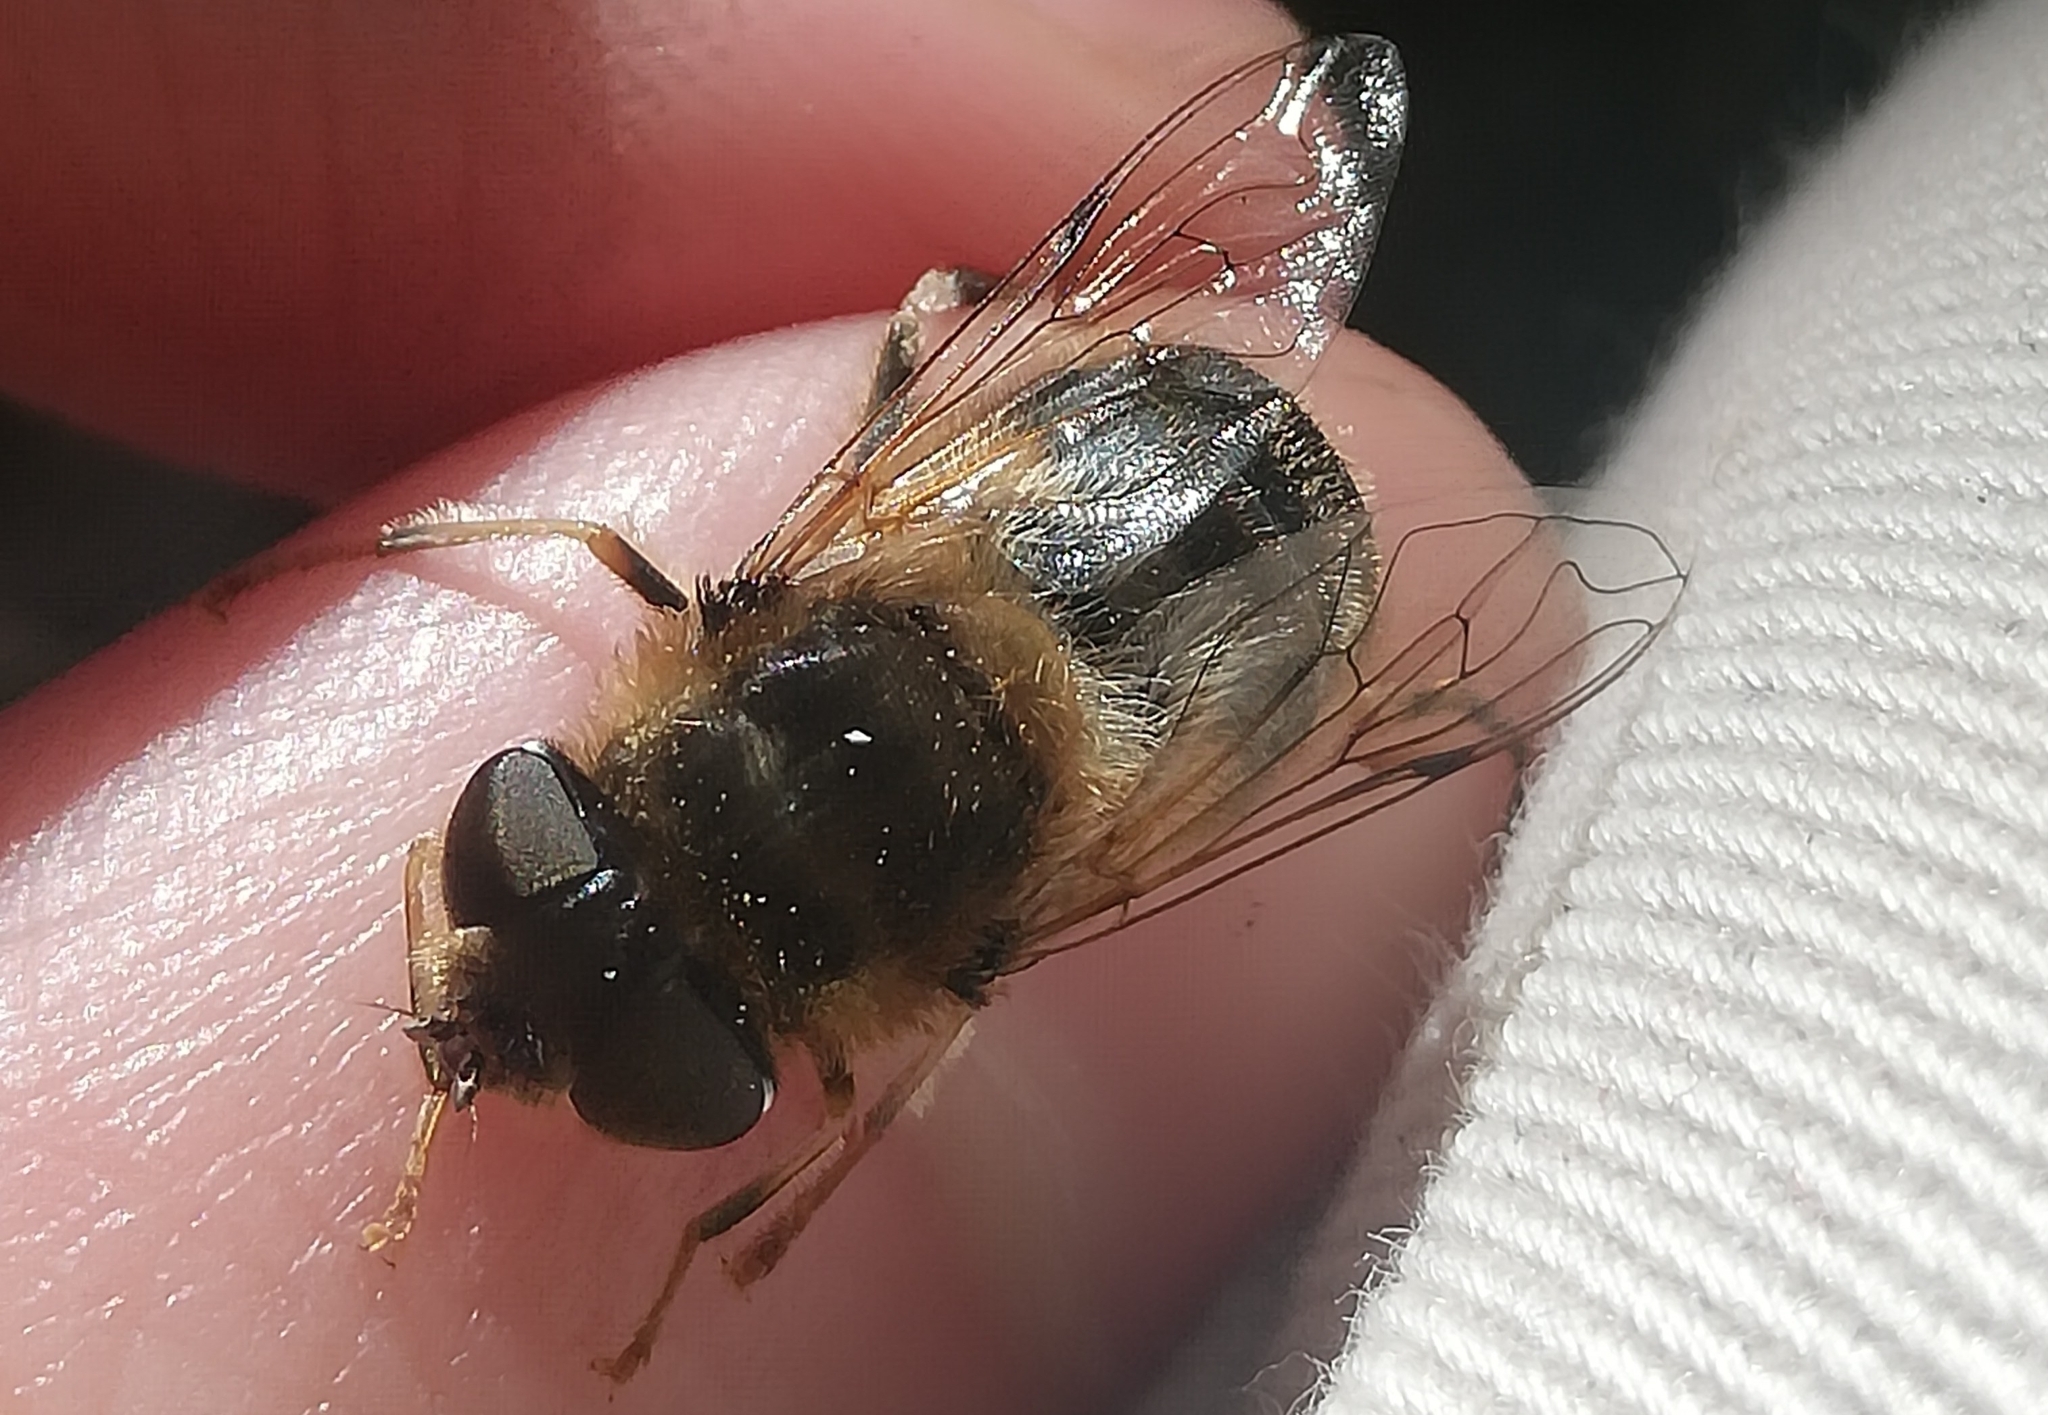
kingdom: Animalia
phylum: Arthropoda
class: Insecta
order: Diptera
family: Syrphidae
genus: Eristalis
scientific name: Eristalis pertinax
